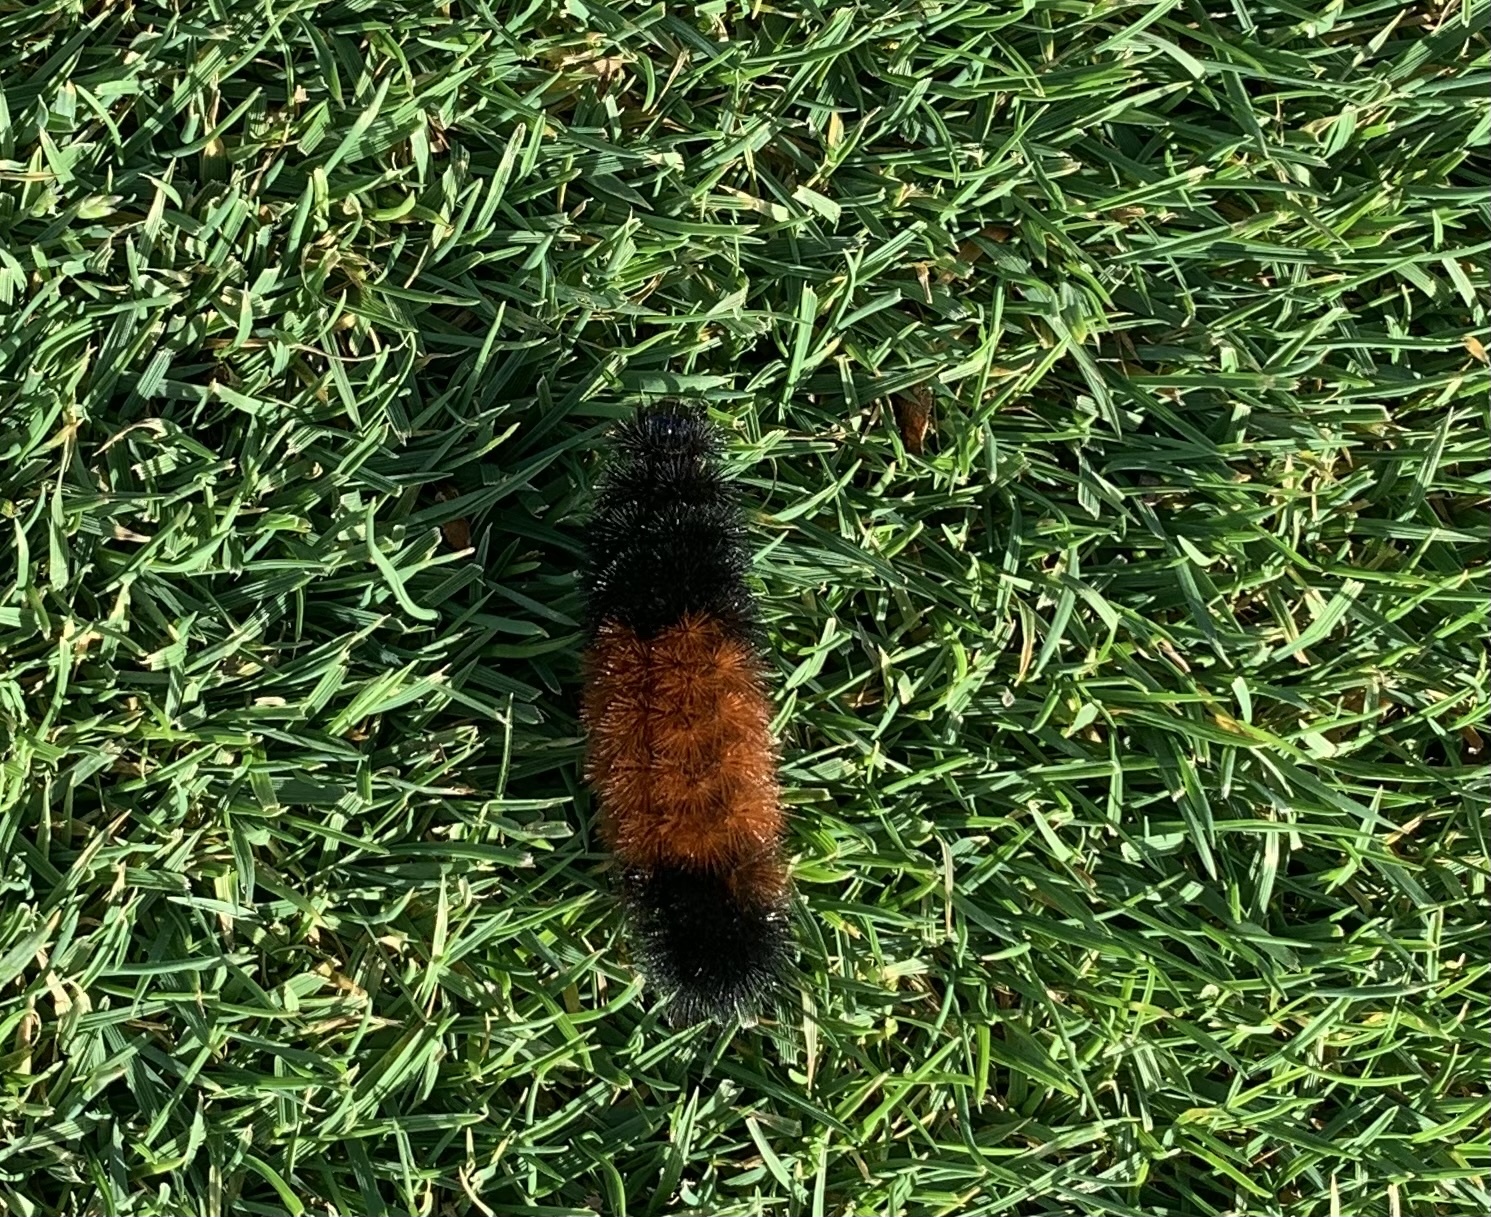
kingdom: Animalia
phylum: Arthropoda
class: Insecta
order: Lepidoptera
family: Erebidae
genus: Pyrrharctia
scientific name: Pyrrharctia isabella
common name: Isabella tiger moth
